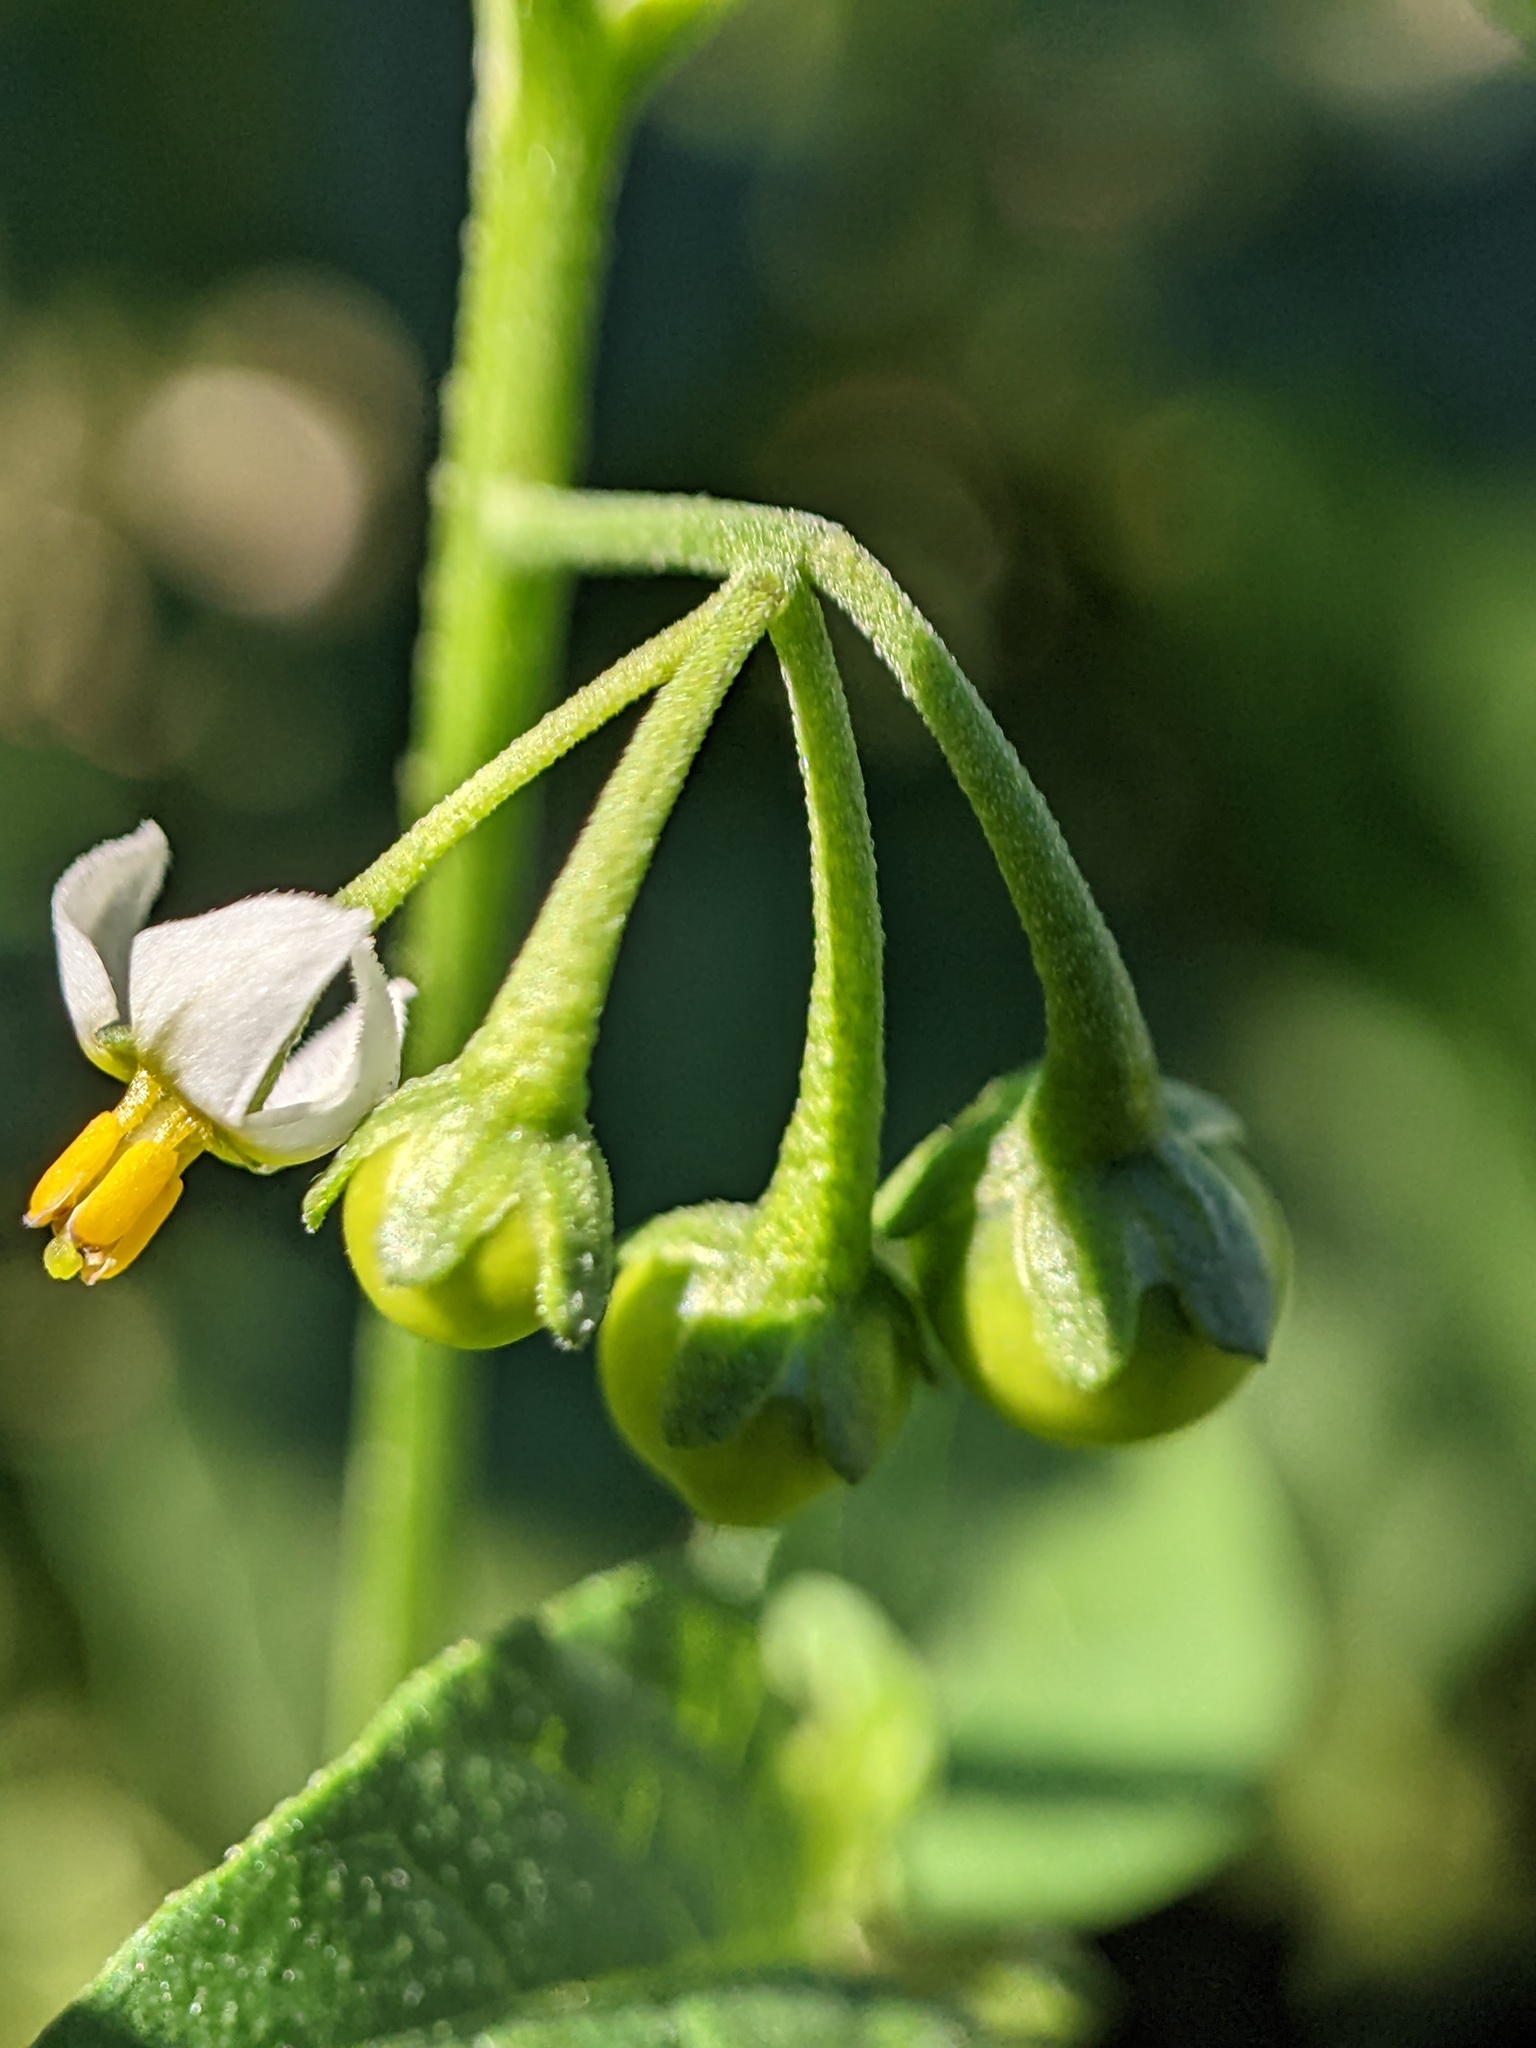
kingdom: Plantae
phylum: Tracheophyta
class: Magnoliopsida
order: Solanales
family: Solanaceae
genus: Solanum
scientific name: Solanum emulans
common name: Eastern black nightshade
